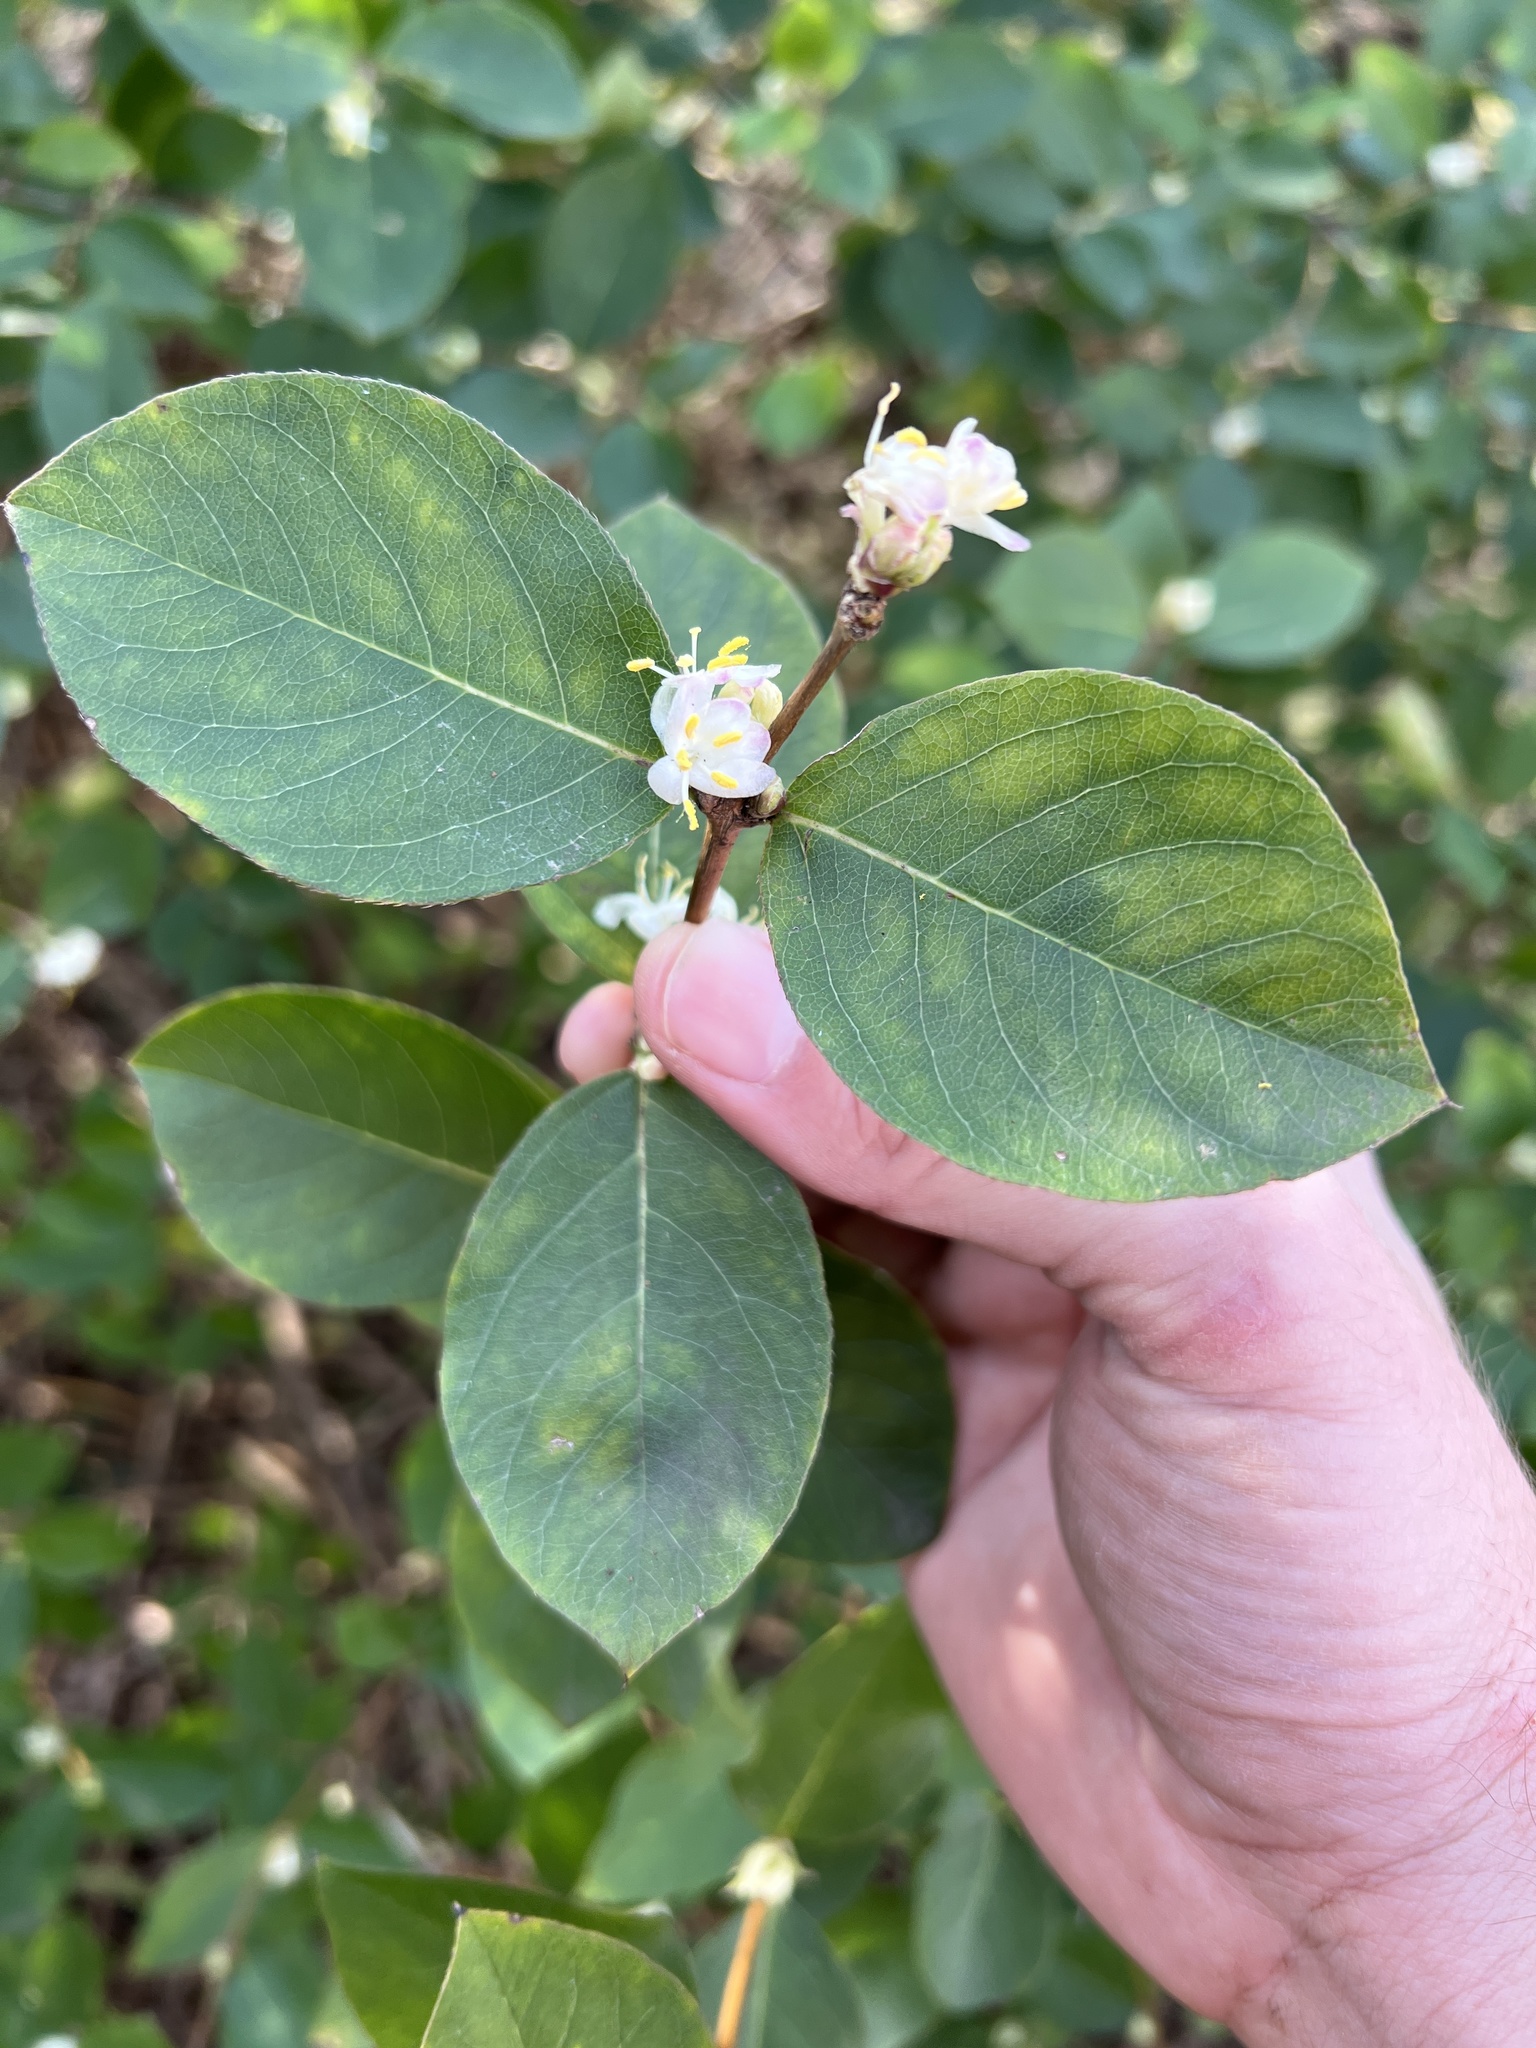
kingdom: Plantae
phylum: Tracheophyta
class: Magnoliopsida
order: Dipsacales
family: Caprifoliaceae
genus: Lonicera
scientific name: Lonicera fragrantissima
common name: Fragrant honeysuckle
